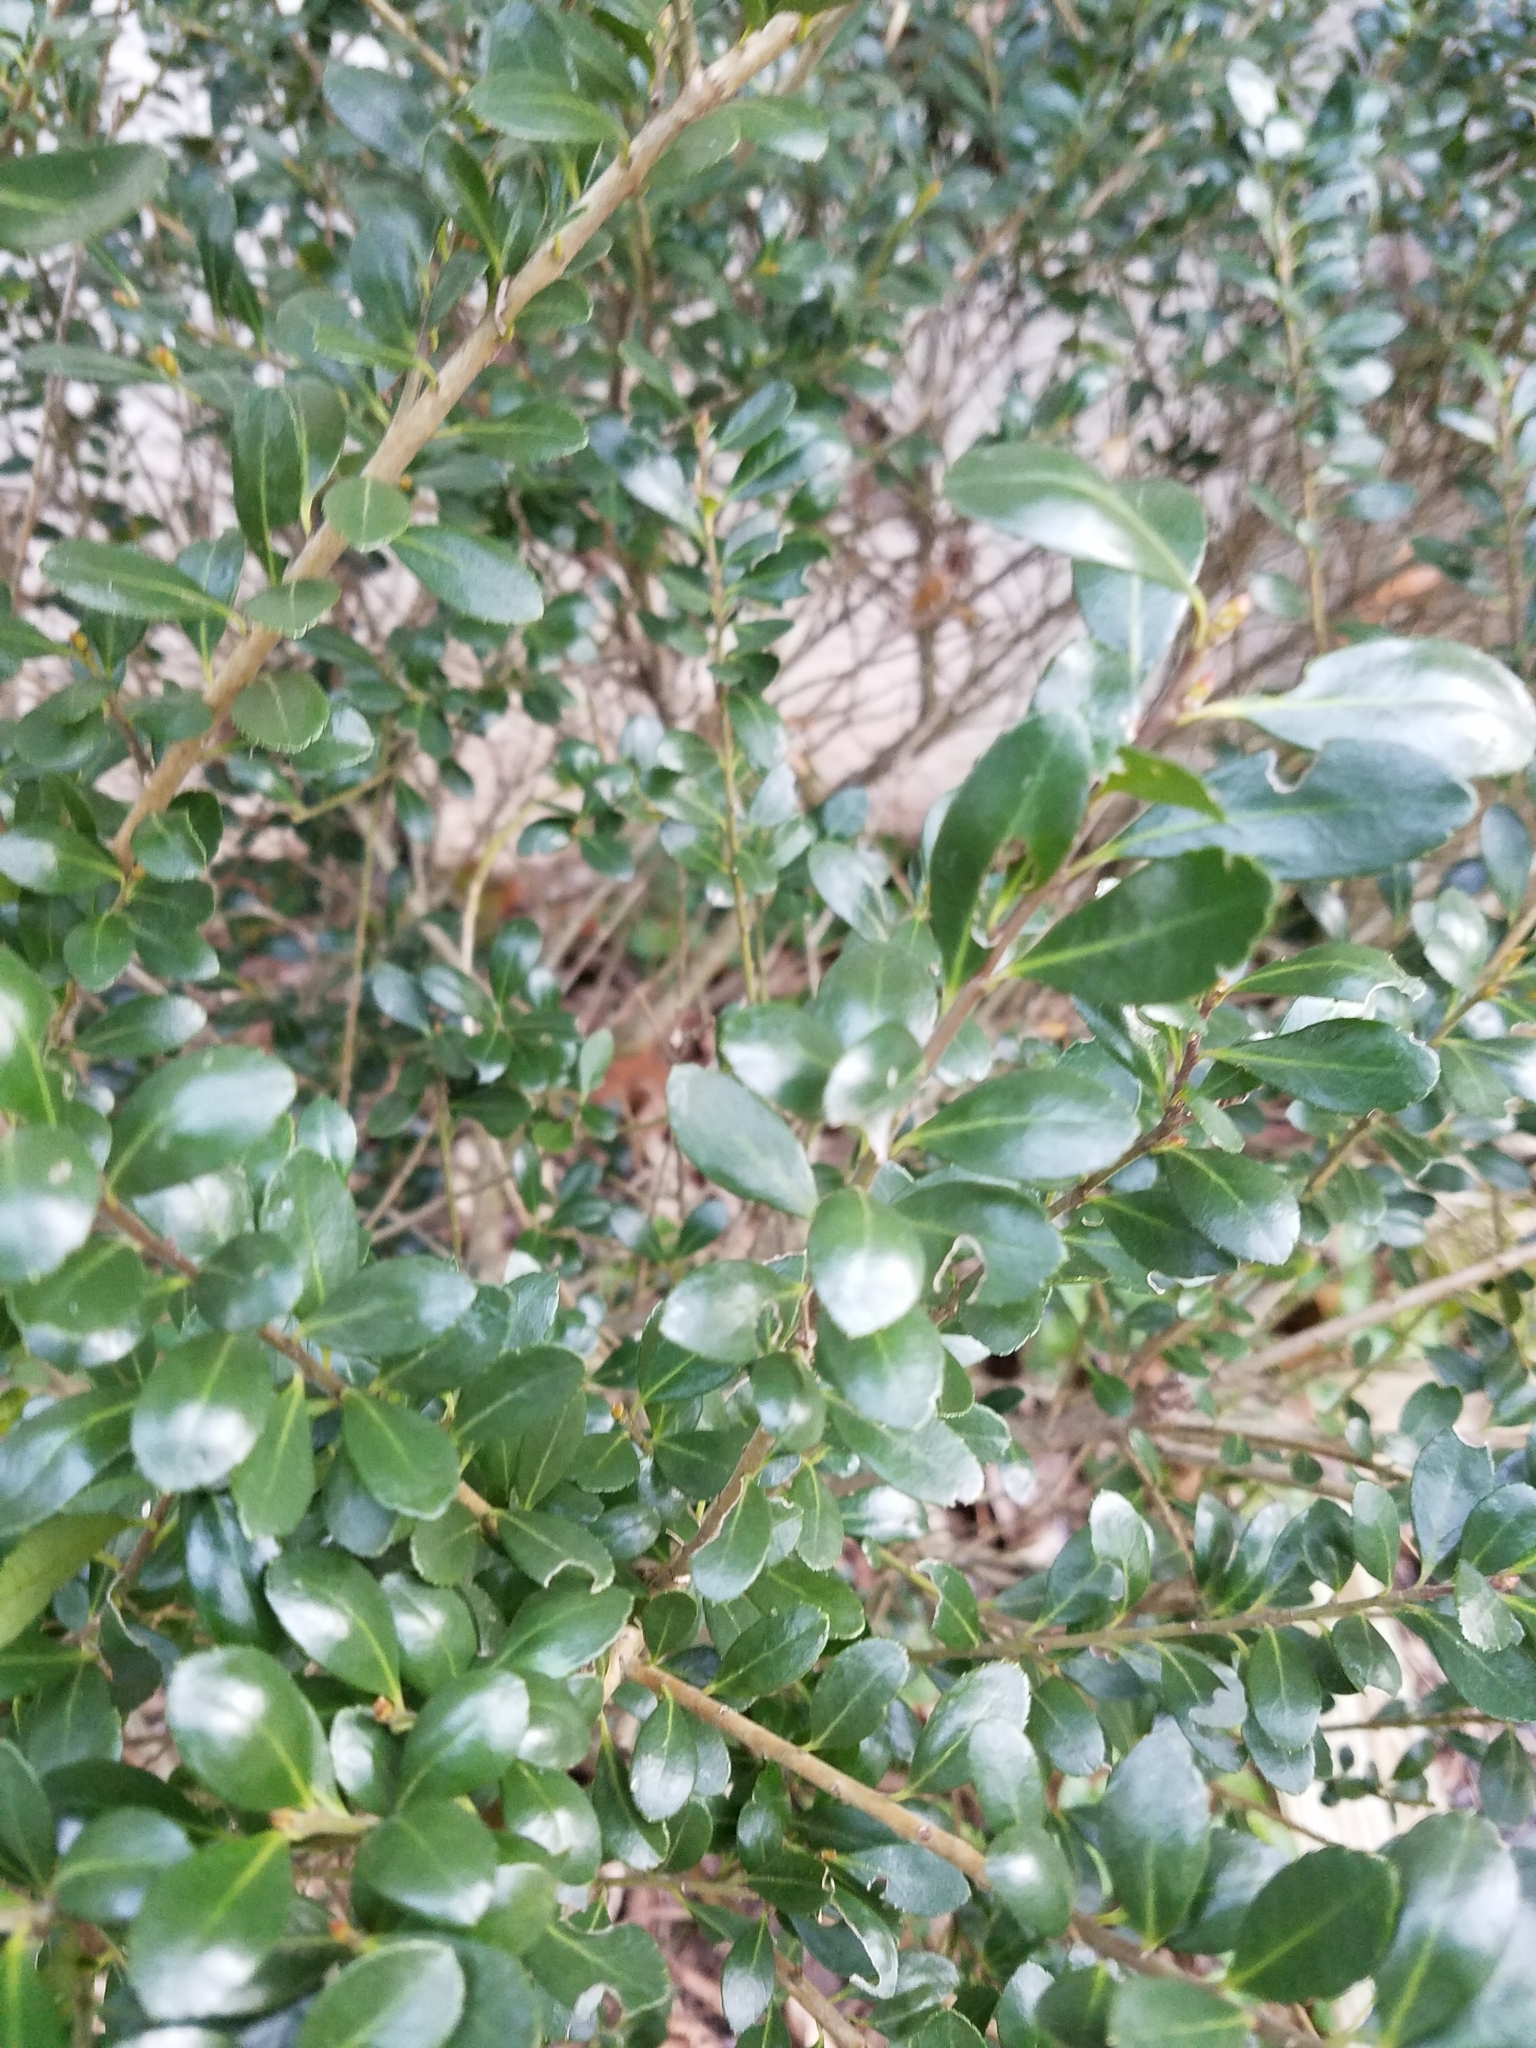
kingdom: Plantae
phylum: Tracheophyta
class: Magnoliopsida
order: Aquifoliales
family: Aquifoliaceae
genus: Ilex
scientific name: Ilex crenata
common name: Japanese holly
